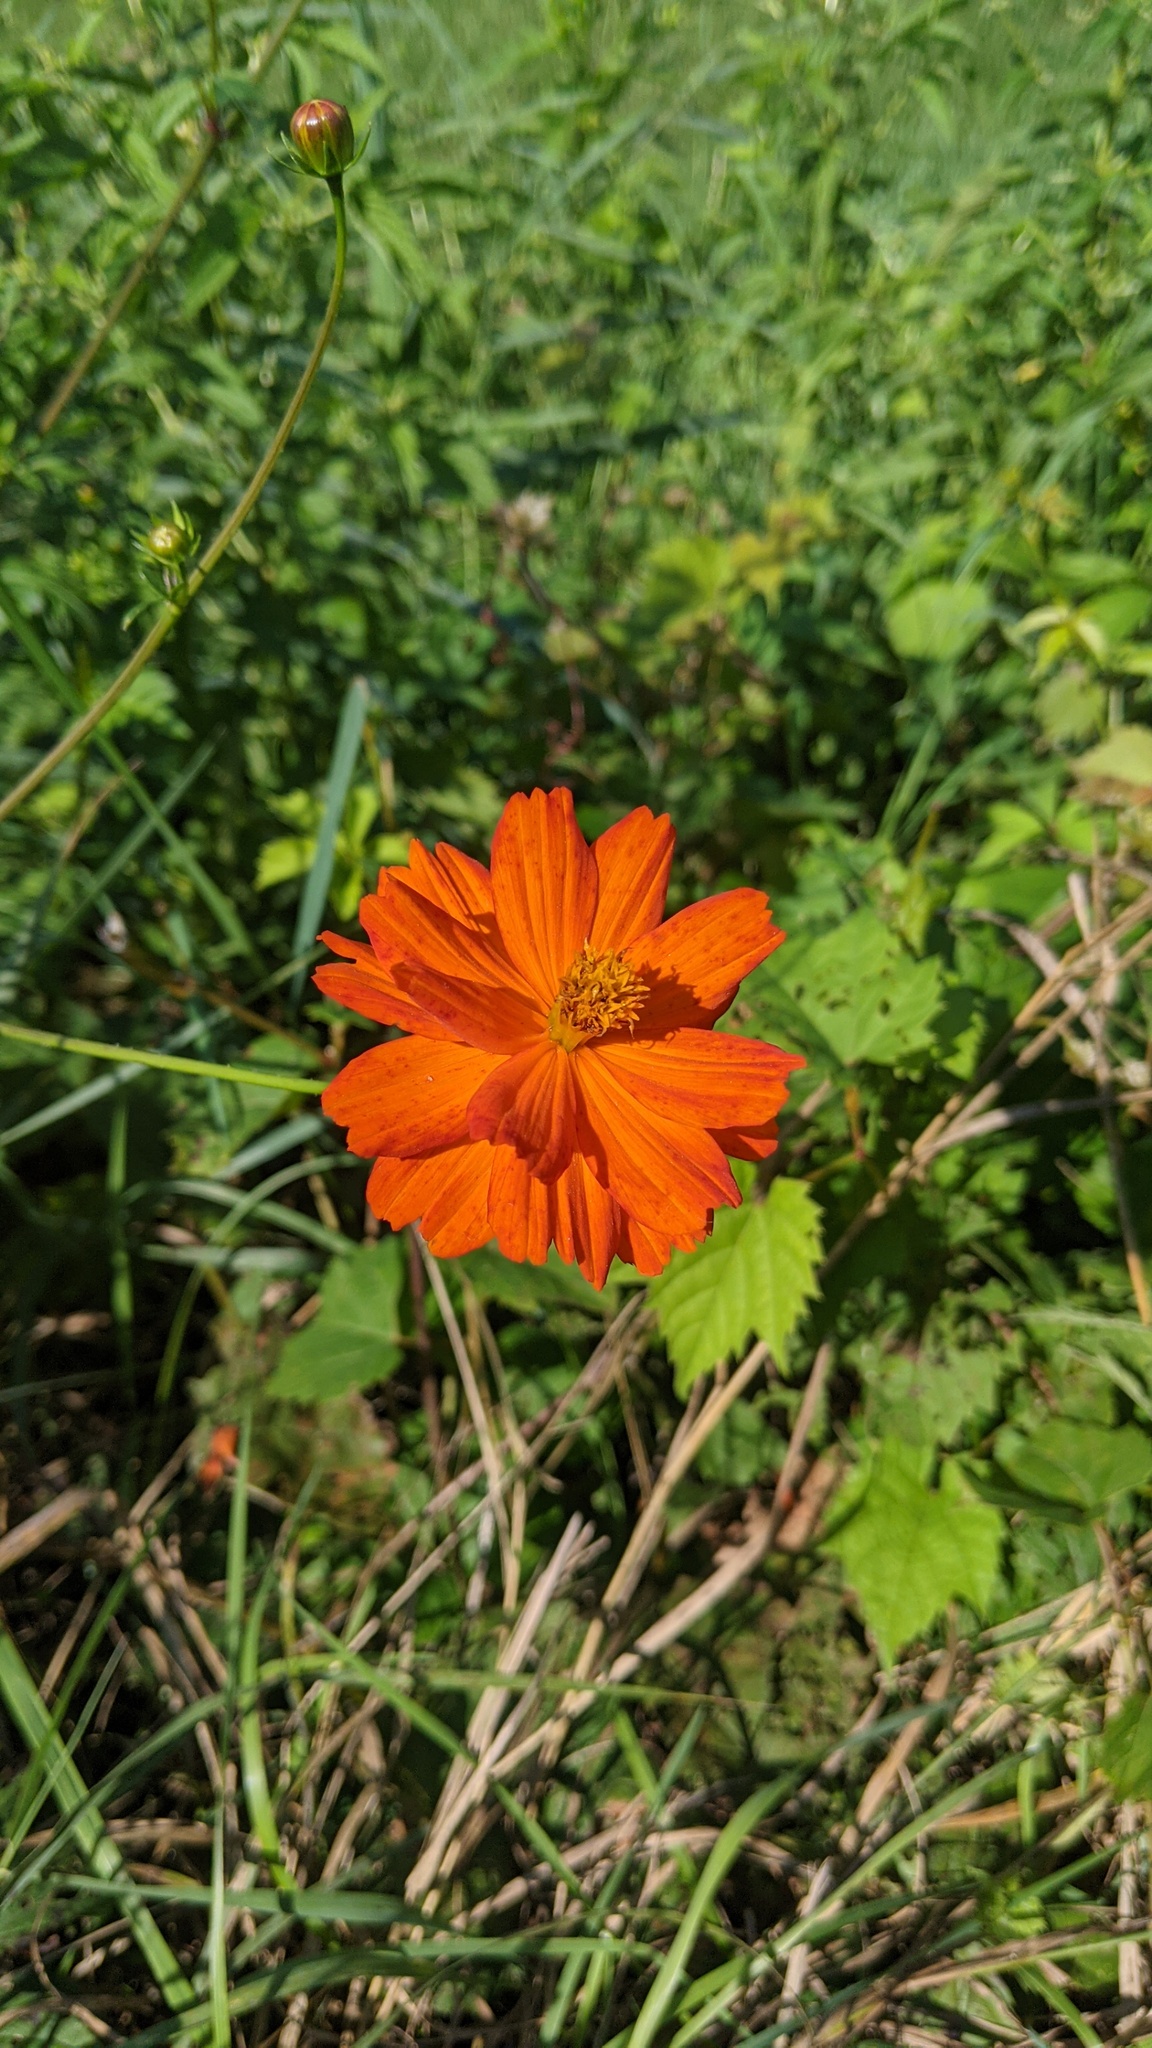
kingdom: Plantae
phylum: Tracheophyta
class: Magnoliopsida
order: Asterales
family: Asteraceae
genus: Cosmos
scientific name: Cosmos sulphureus
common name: Sulphur cosmos
